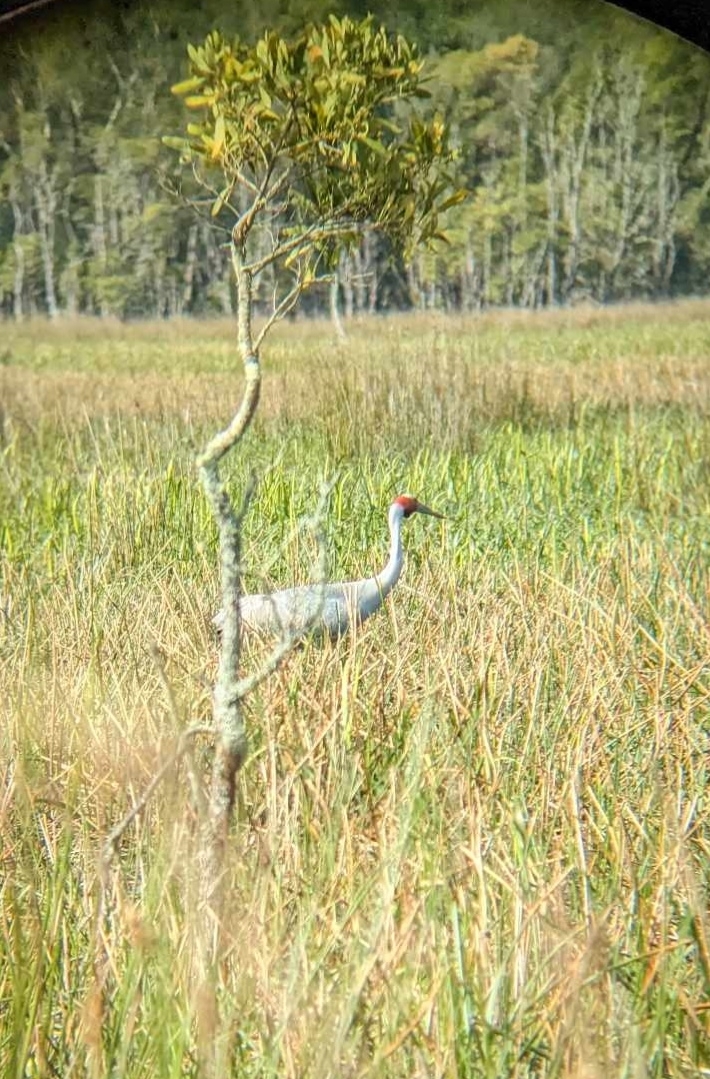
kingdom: Animalia
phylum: Chordata
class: Aves
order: Gruiformes
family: Gruidae
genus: Grus
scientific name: Grus rubicunda
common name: Brolga
